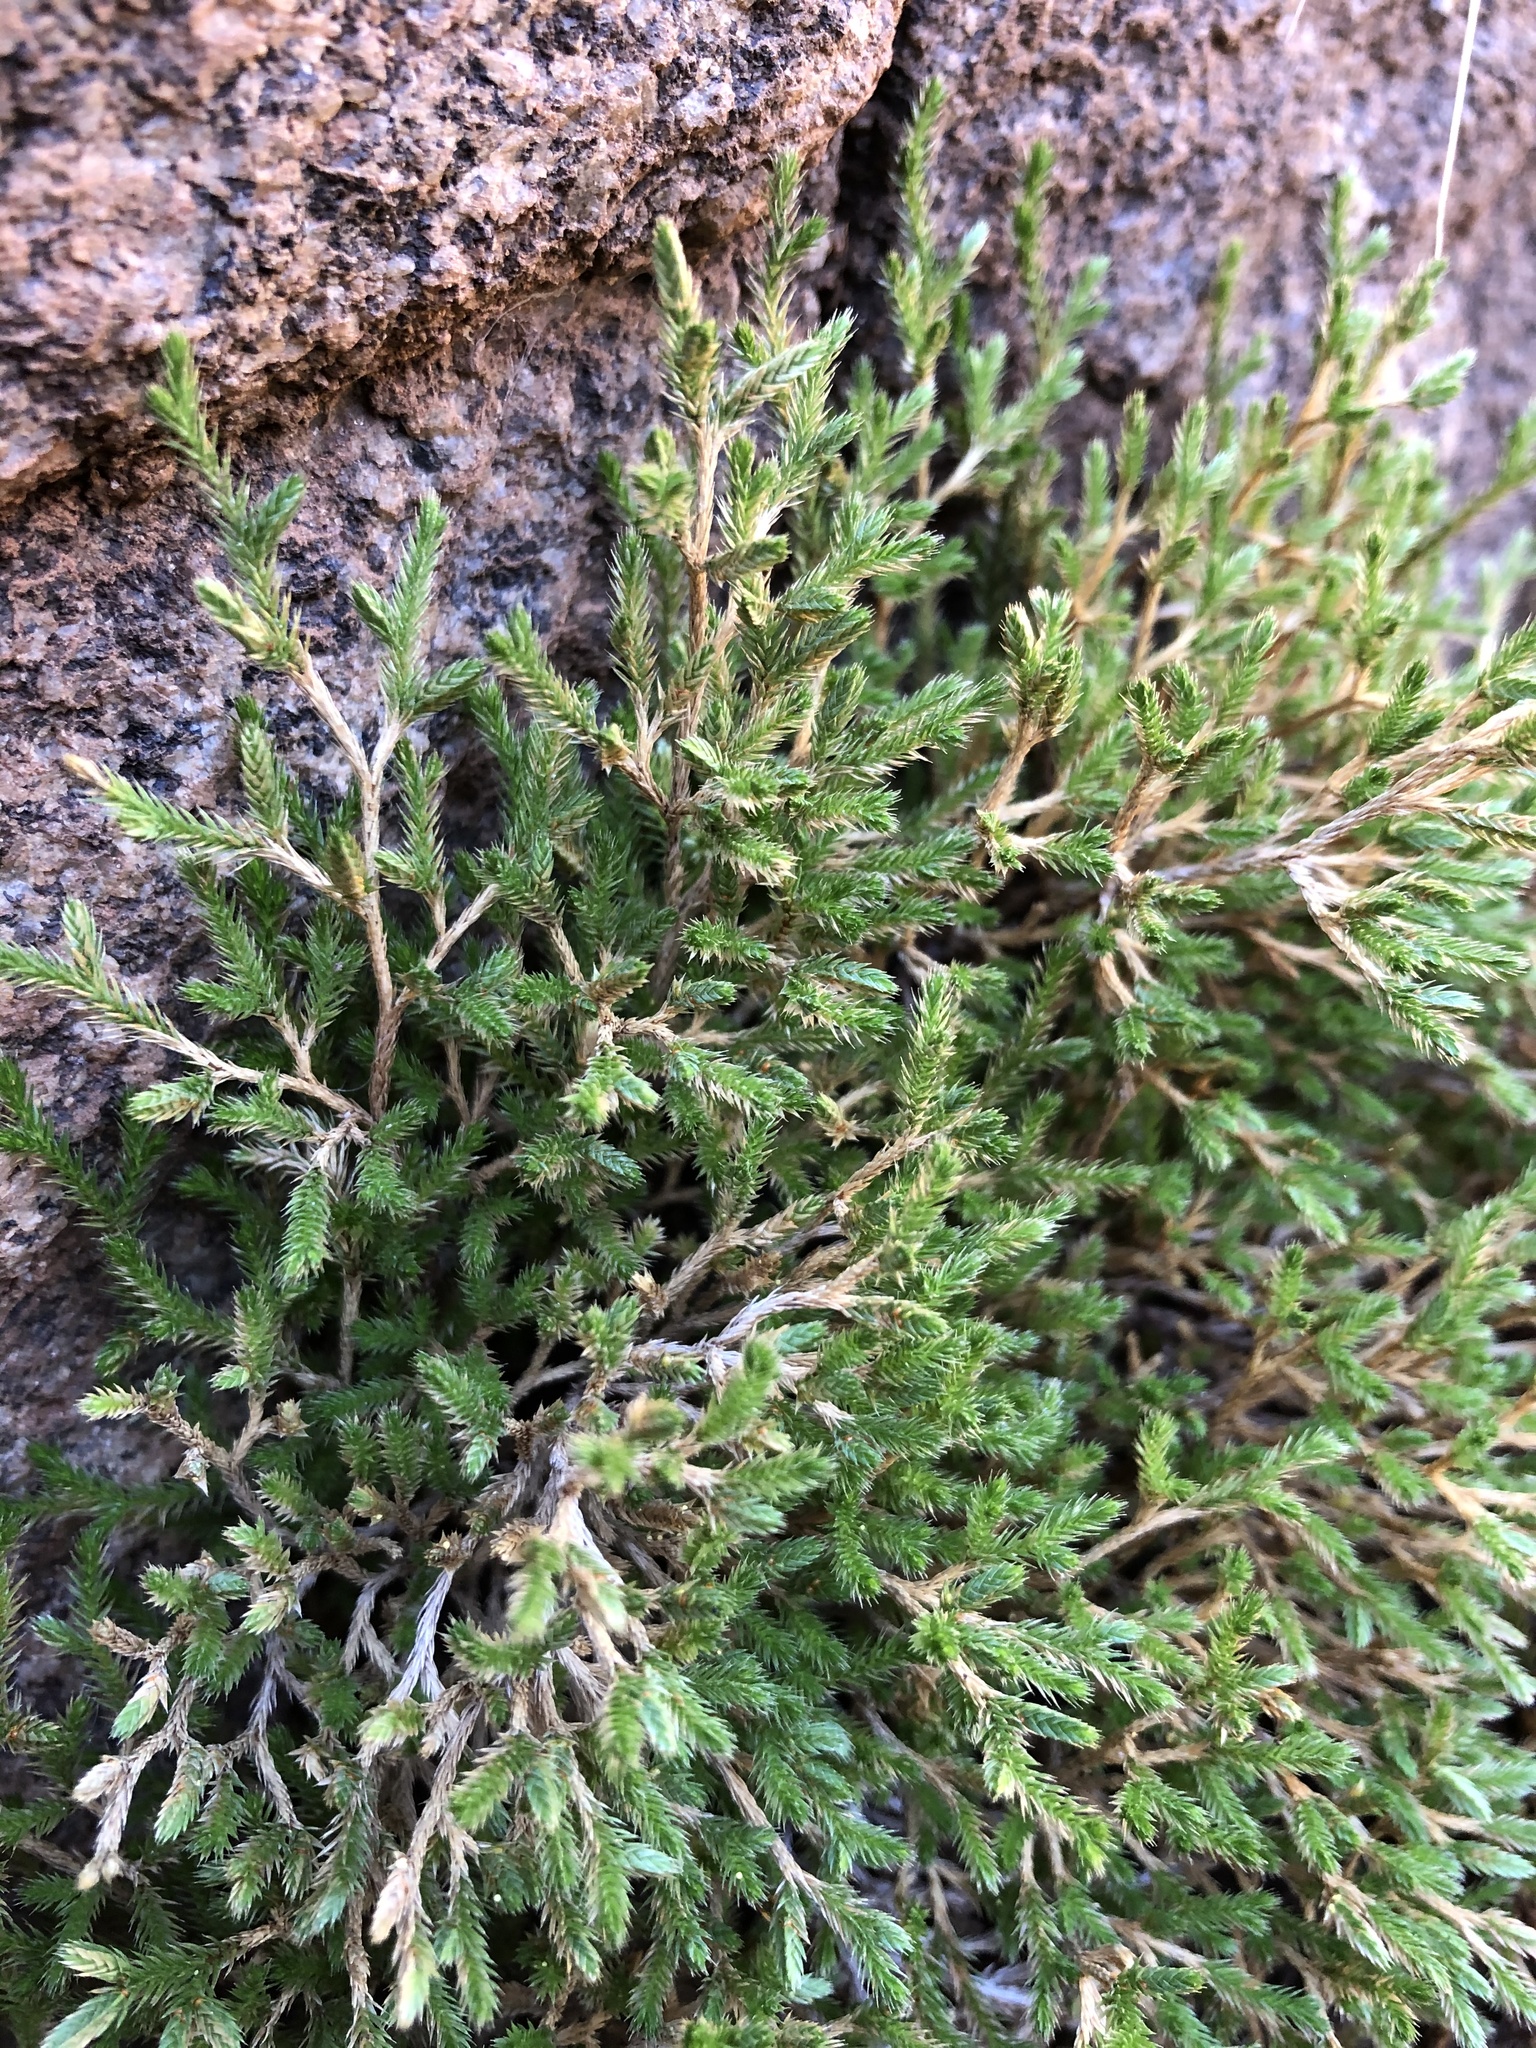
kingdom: Plantae
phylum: Tracheophyta
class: Lycopodiopsida
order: Selaginellales
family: Selaginellaceae
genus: Selaginella
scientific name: Selaginella bigelovii
